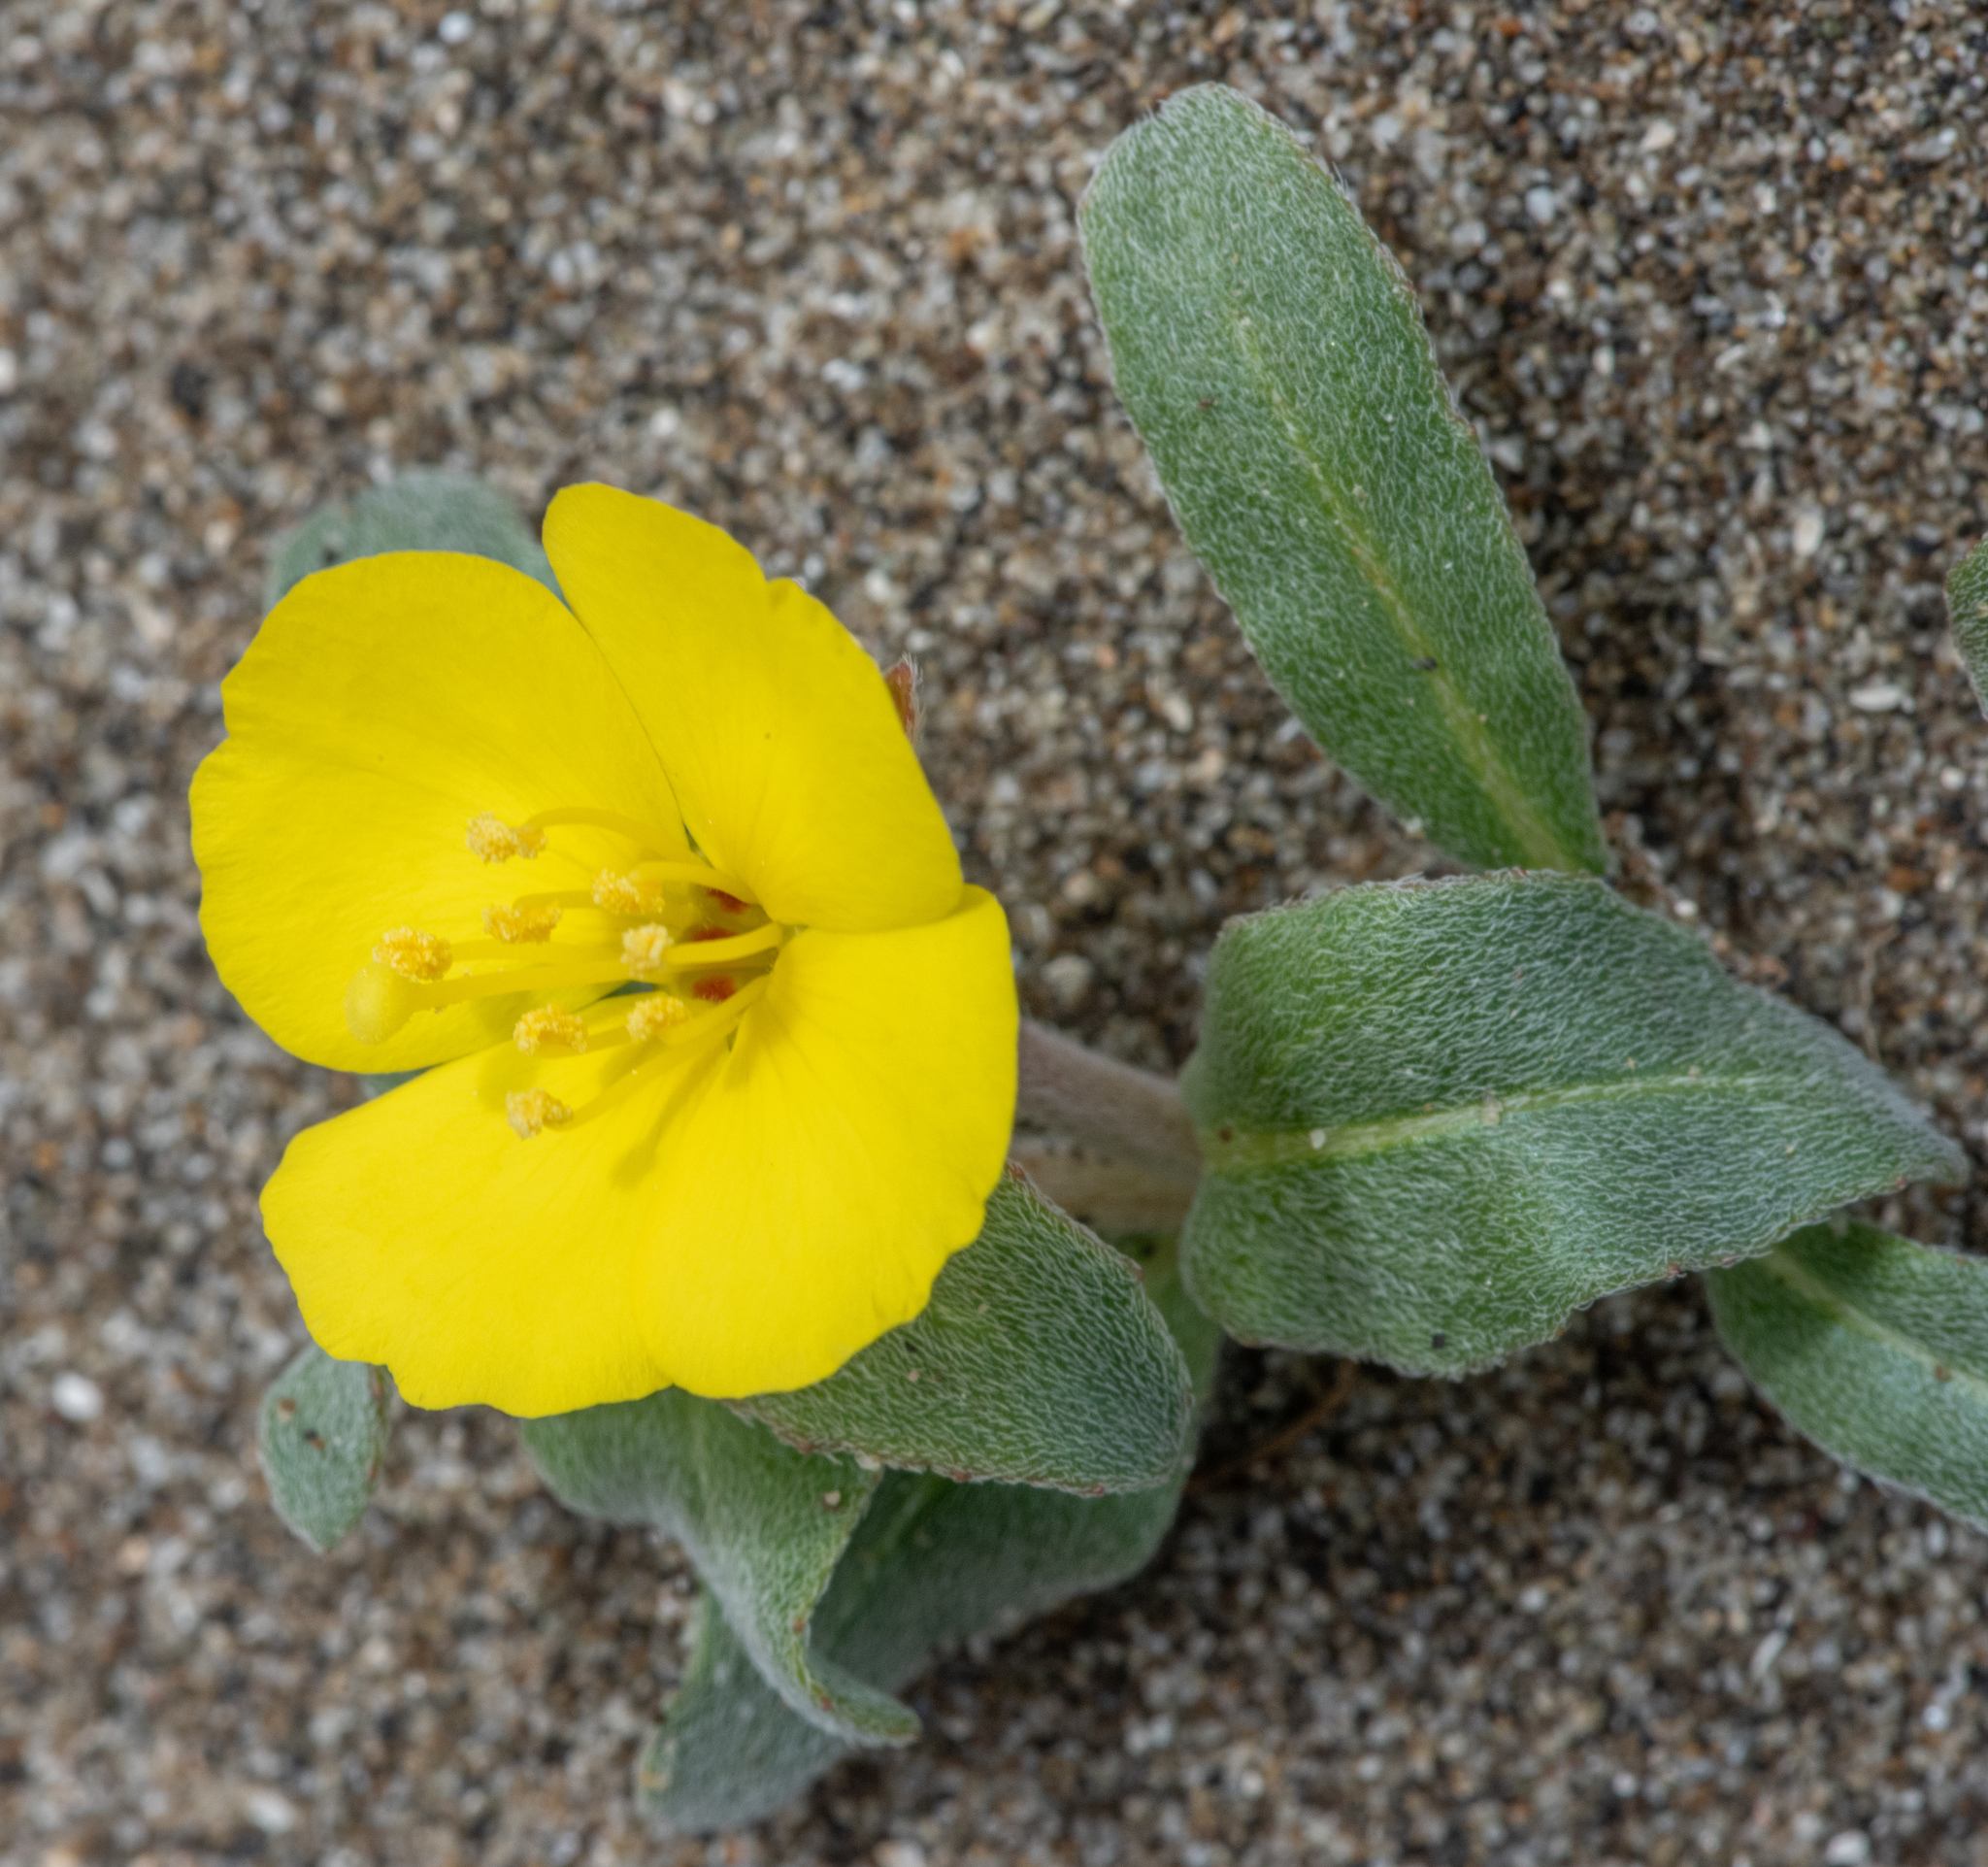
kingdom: Plantae
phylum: Tracheophyta
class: Magnoliopsida
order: Myrtales
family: Onagraceae
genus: Camissoniopsis
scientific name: Camissoniopsis cheiranthifolia
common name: Beach suncup
